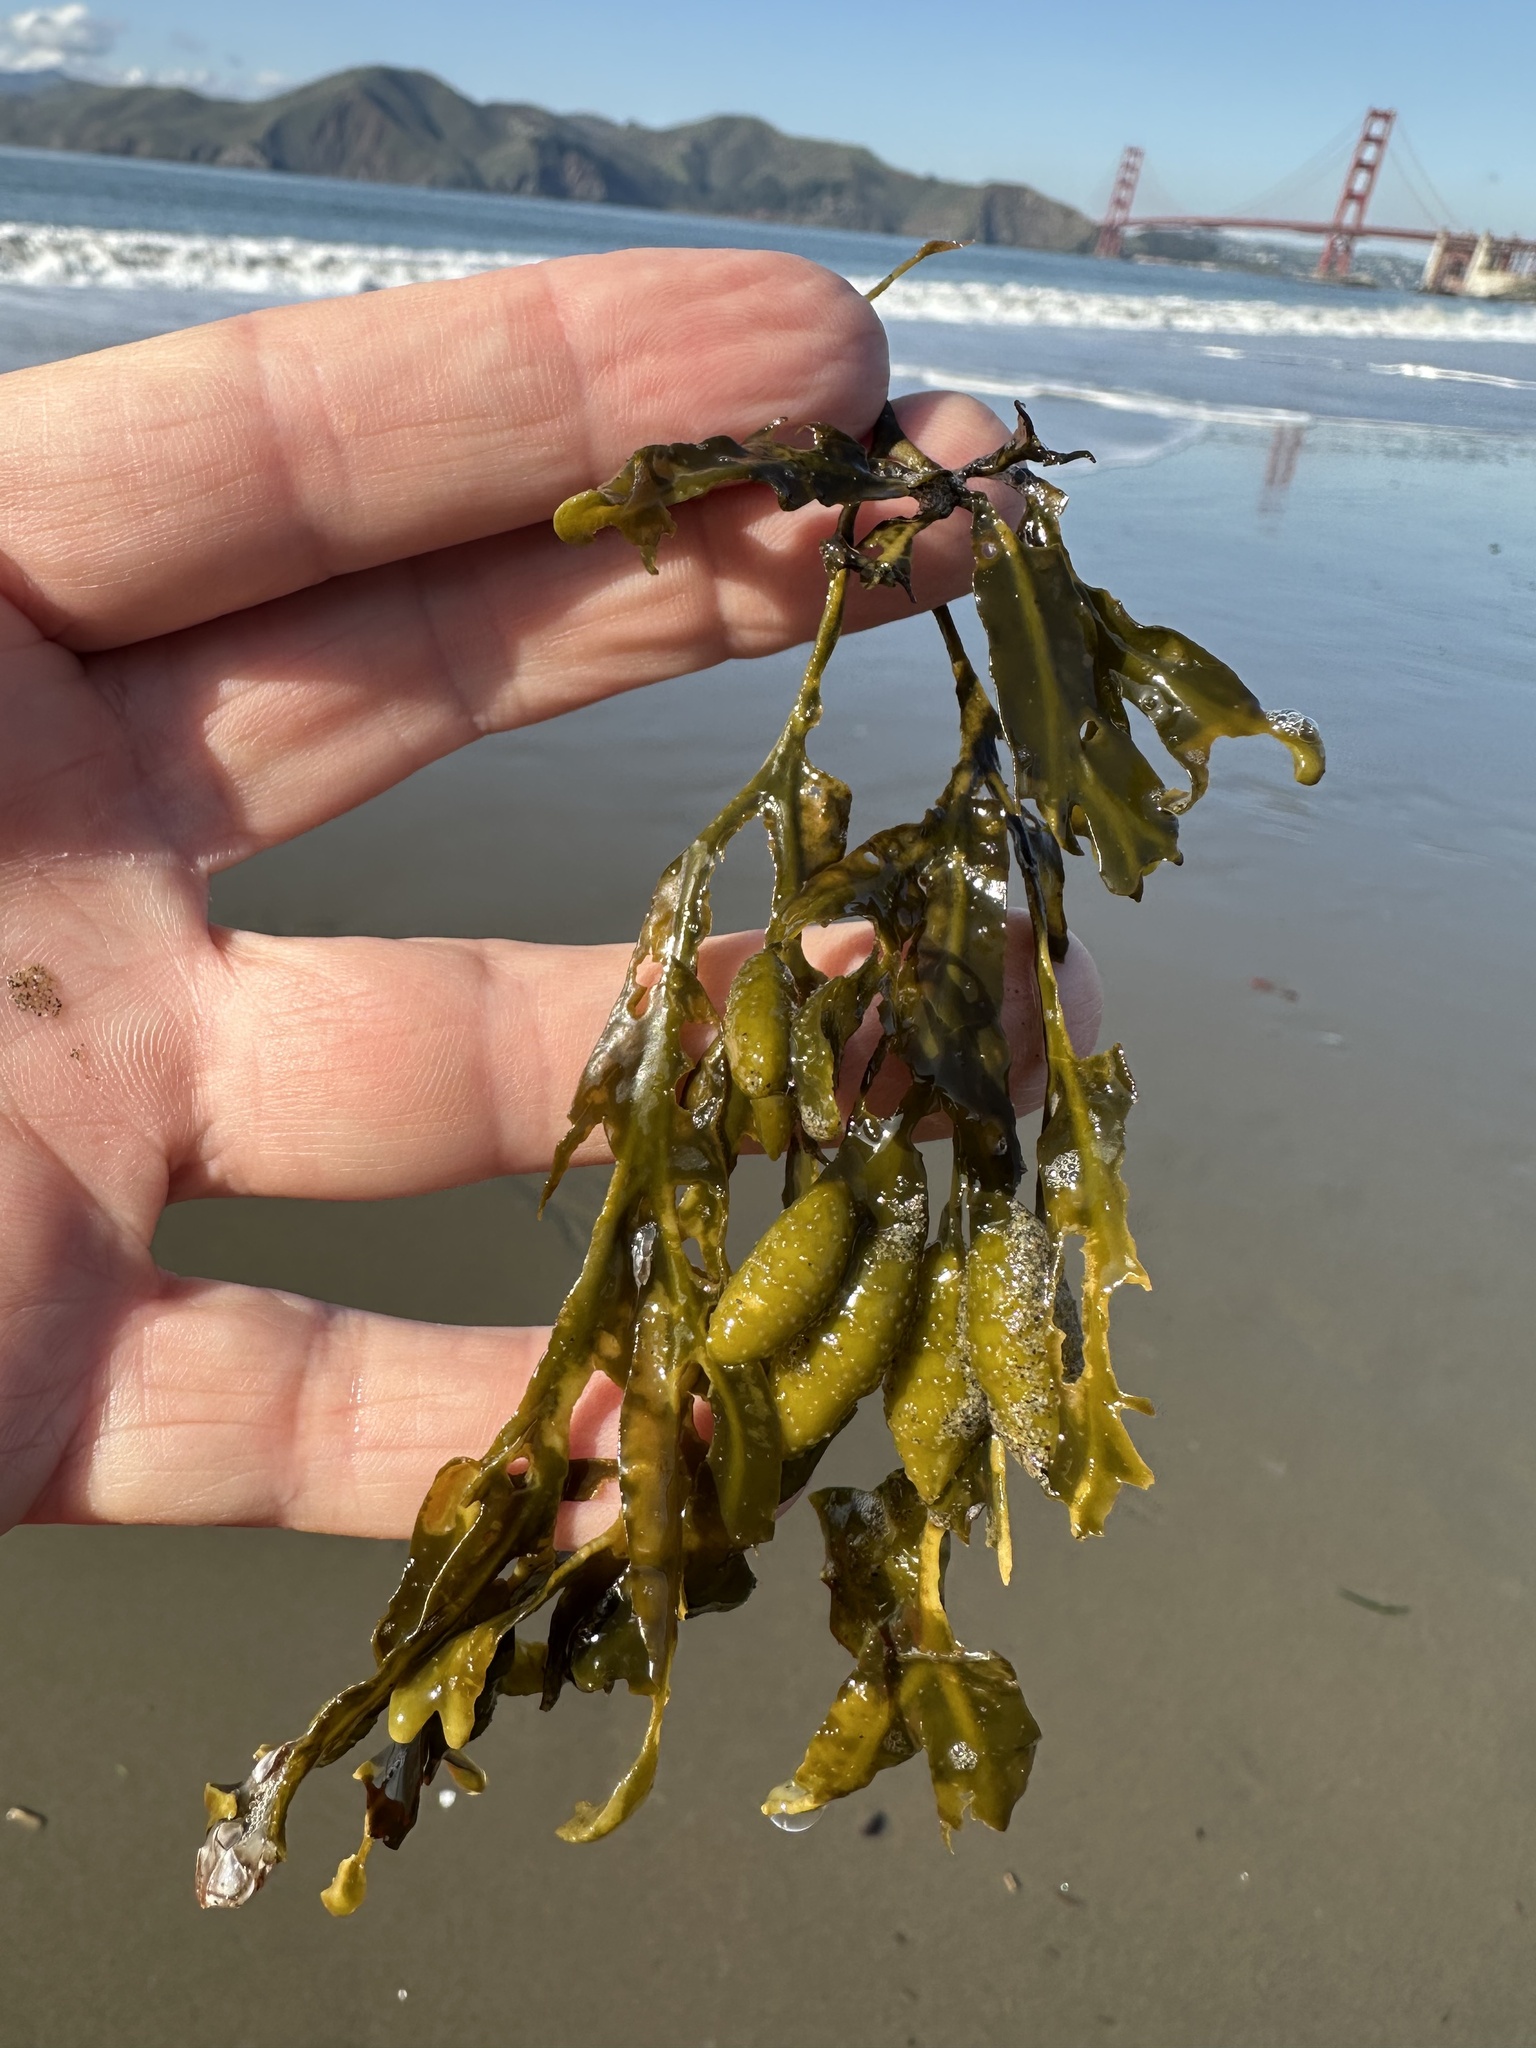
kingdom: Chromista
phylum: Ochrophyta
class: Phaeophyceae
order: Fucales
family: Fucaceae
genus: Fucus
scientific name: Fucus distichus
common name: Rockweed
